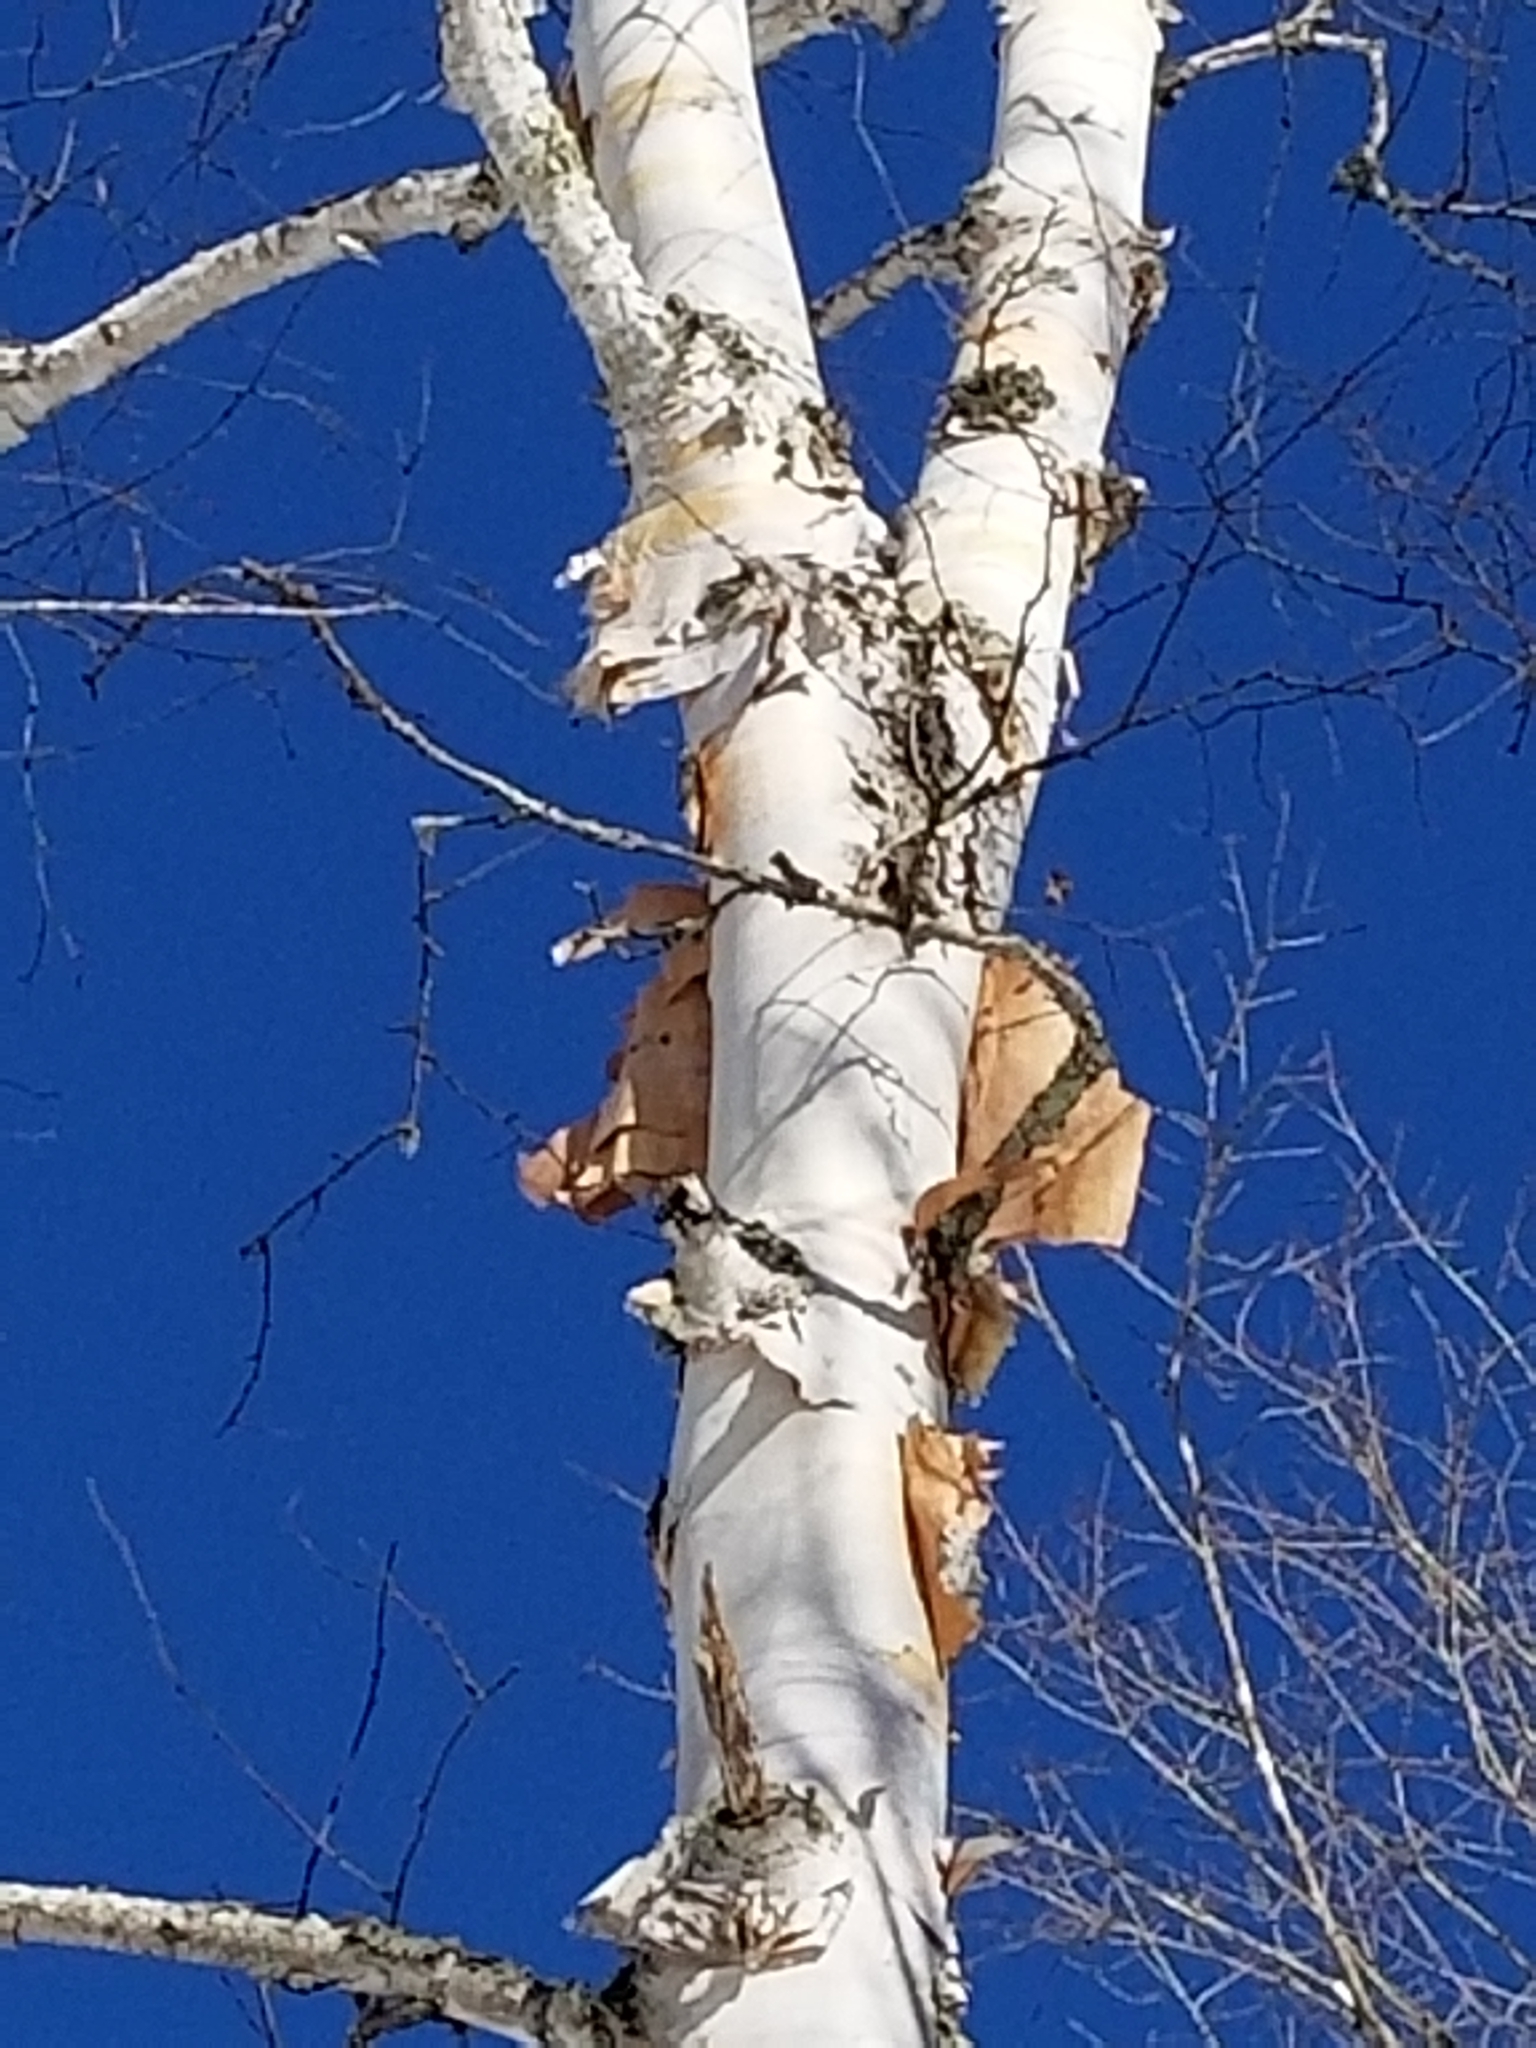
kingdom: Plantae
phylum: Tracheophyta
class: Magnoliopsida
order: Fagales
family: Betulaceae
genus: Betula
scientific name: Betula papyrifera
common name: Paper birch
